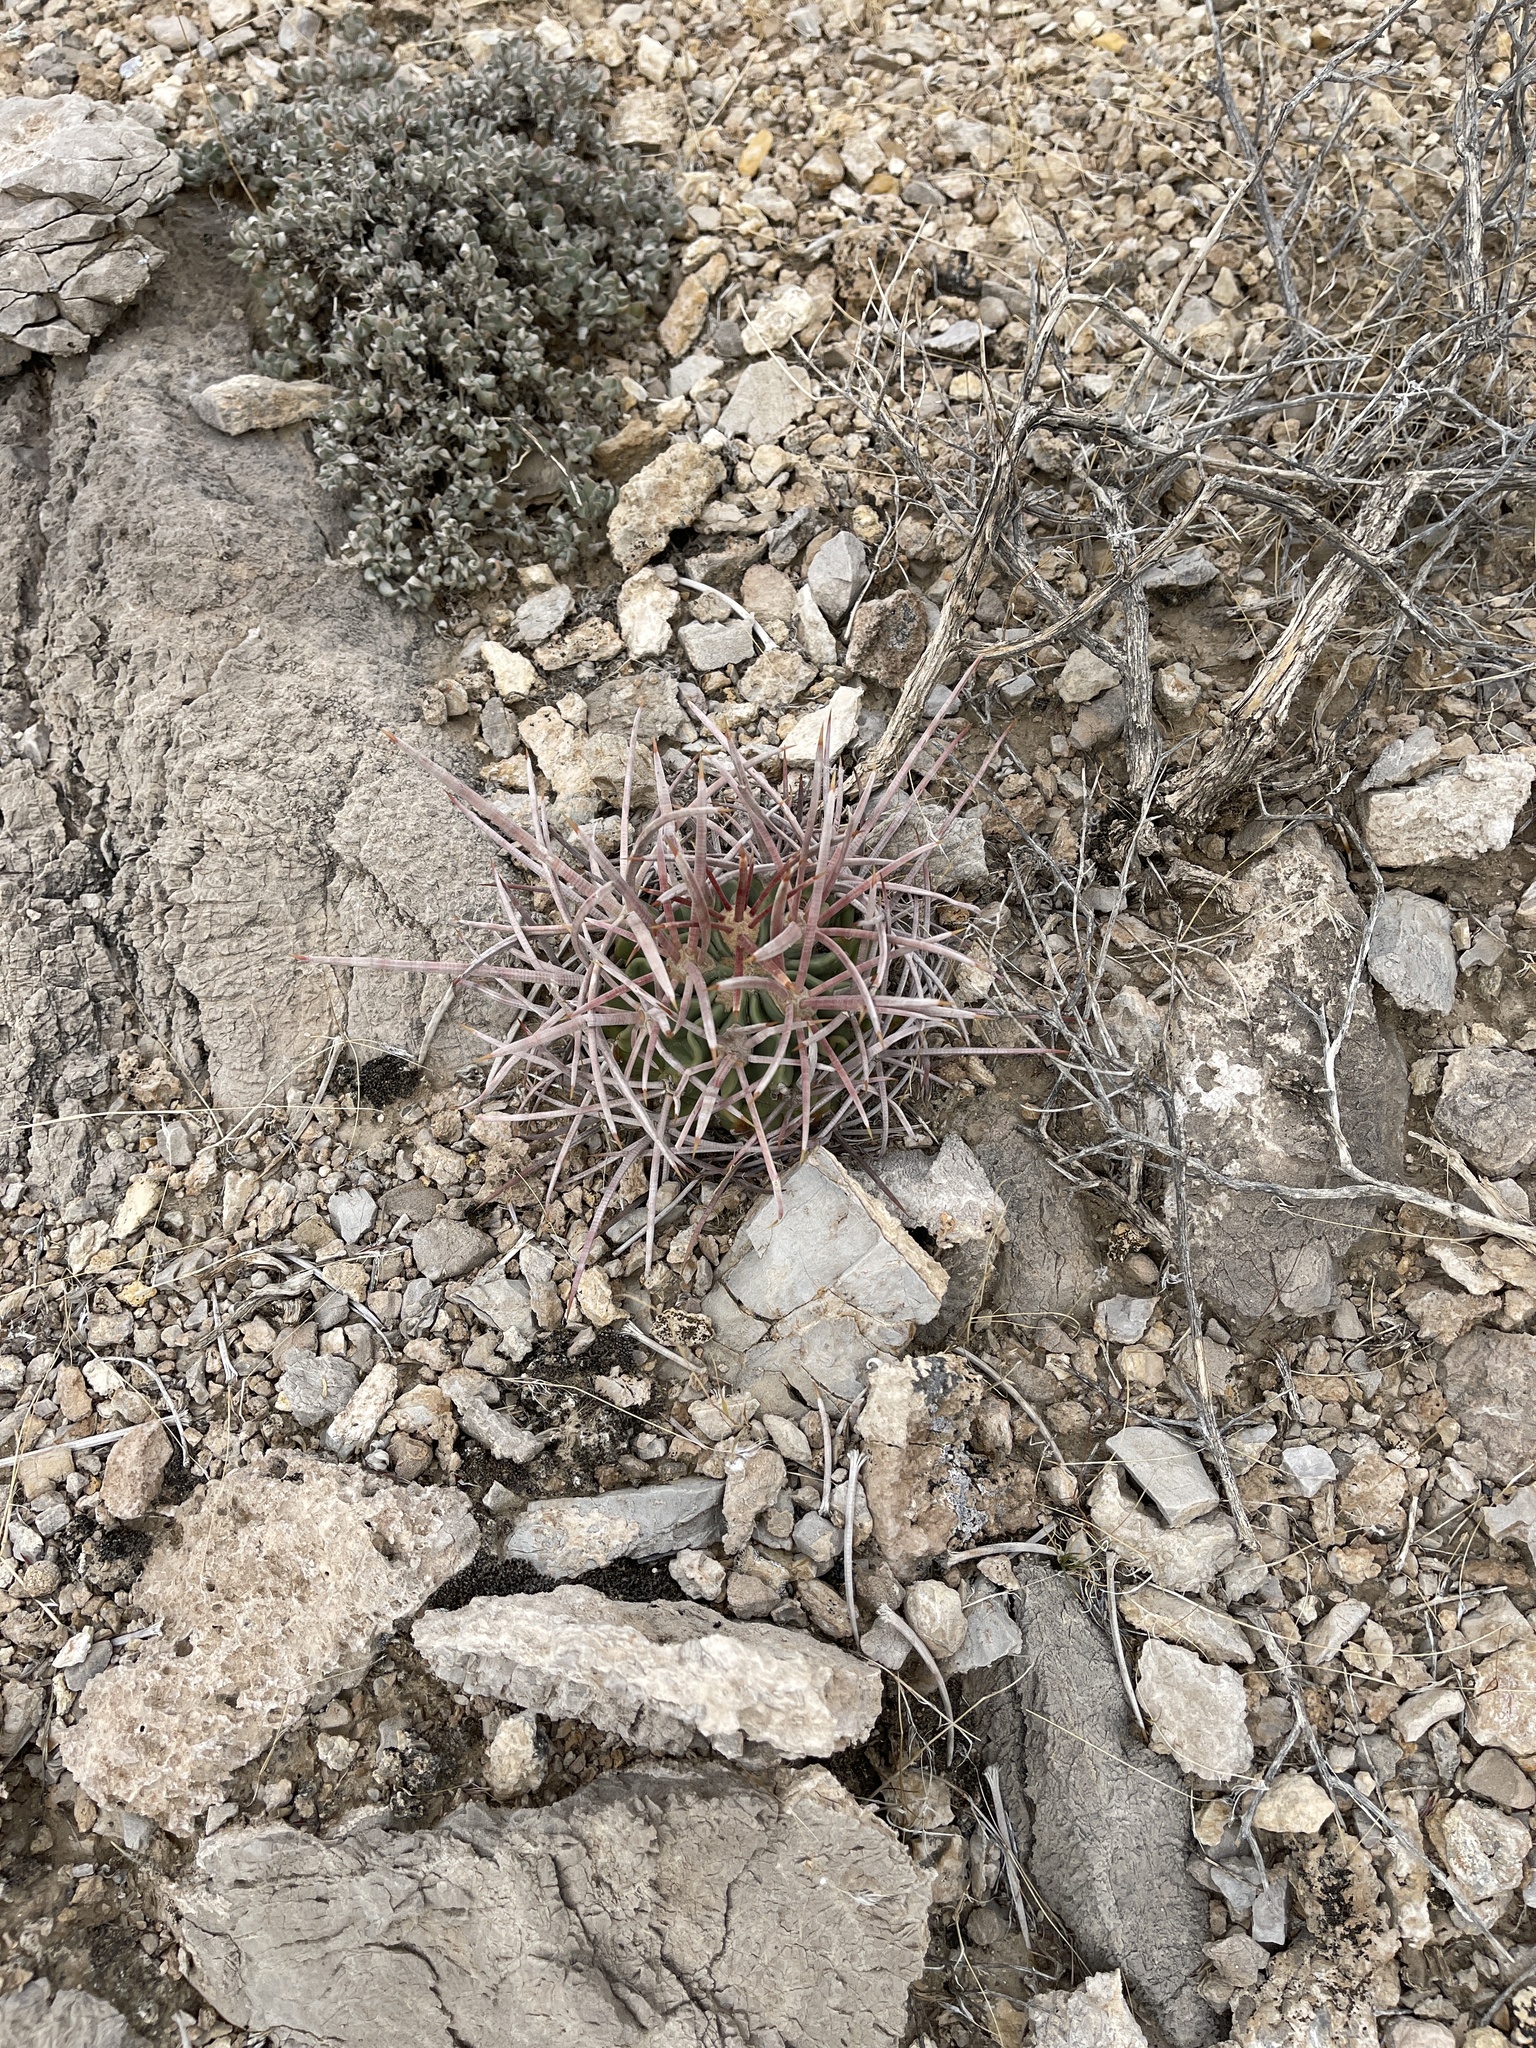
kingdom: Plantae
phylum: Tracheophyta
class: Magnoliopsida
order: Caryophyllales
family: Cactaceae
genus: Echinocactus
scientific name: Echinocactus polycephalus
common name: Cottontop cactus
